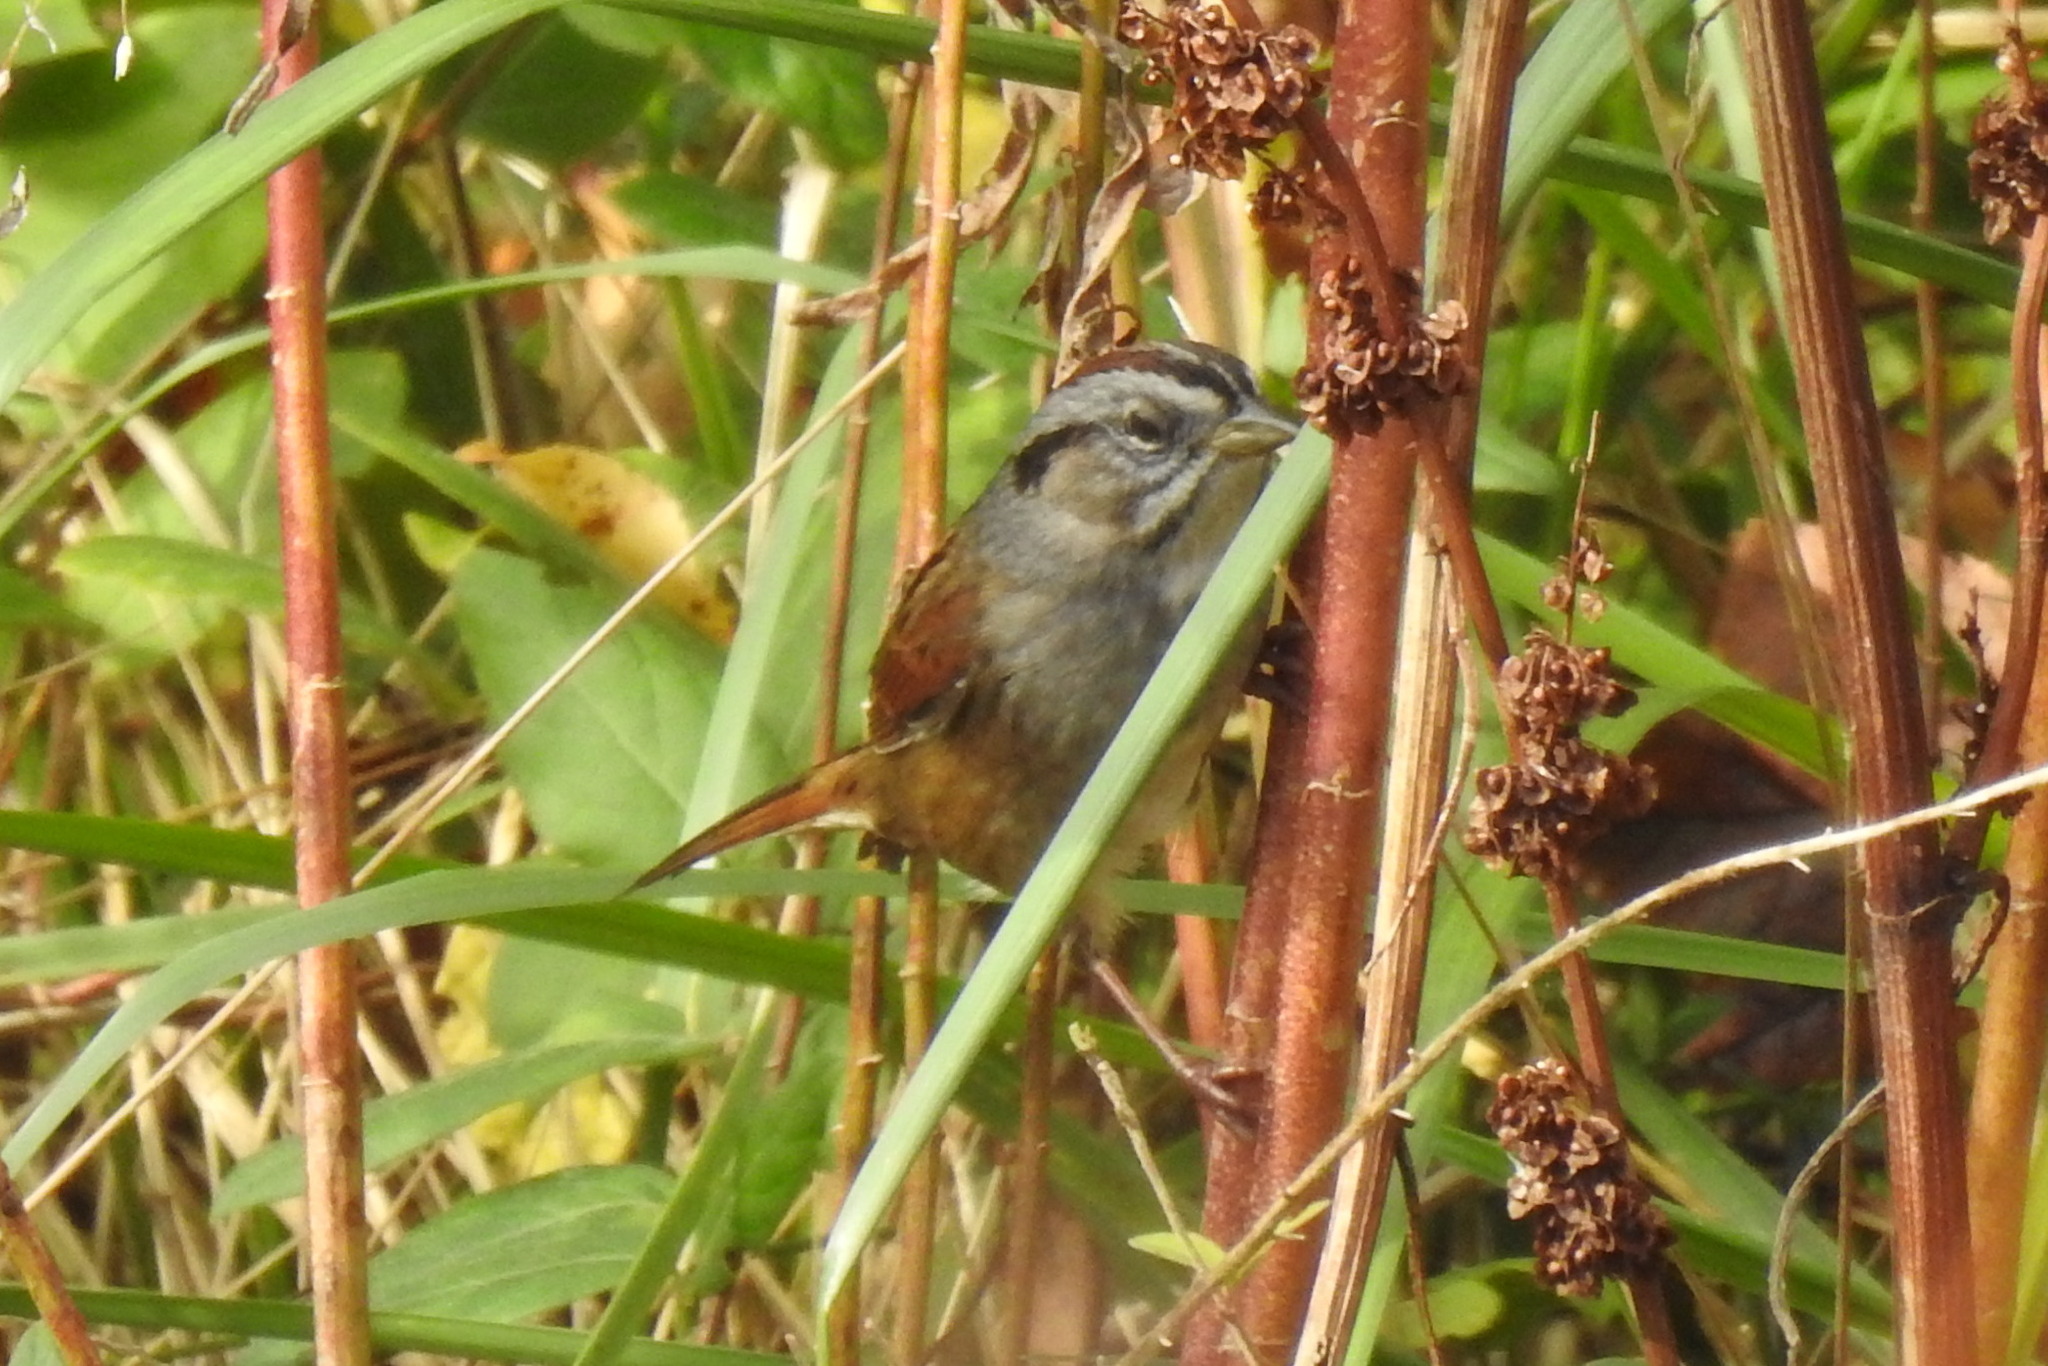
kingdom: Animalia
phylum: Chordata
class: Aves
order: Passeriformes
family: Passerellidae
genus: Melospiza
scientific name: Melospiza georgiana
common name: Swamp sparrow
